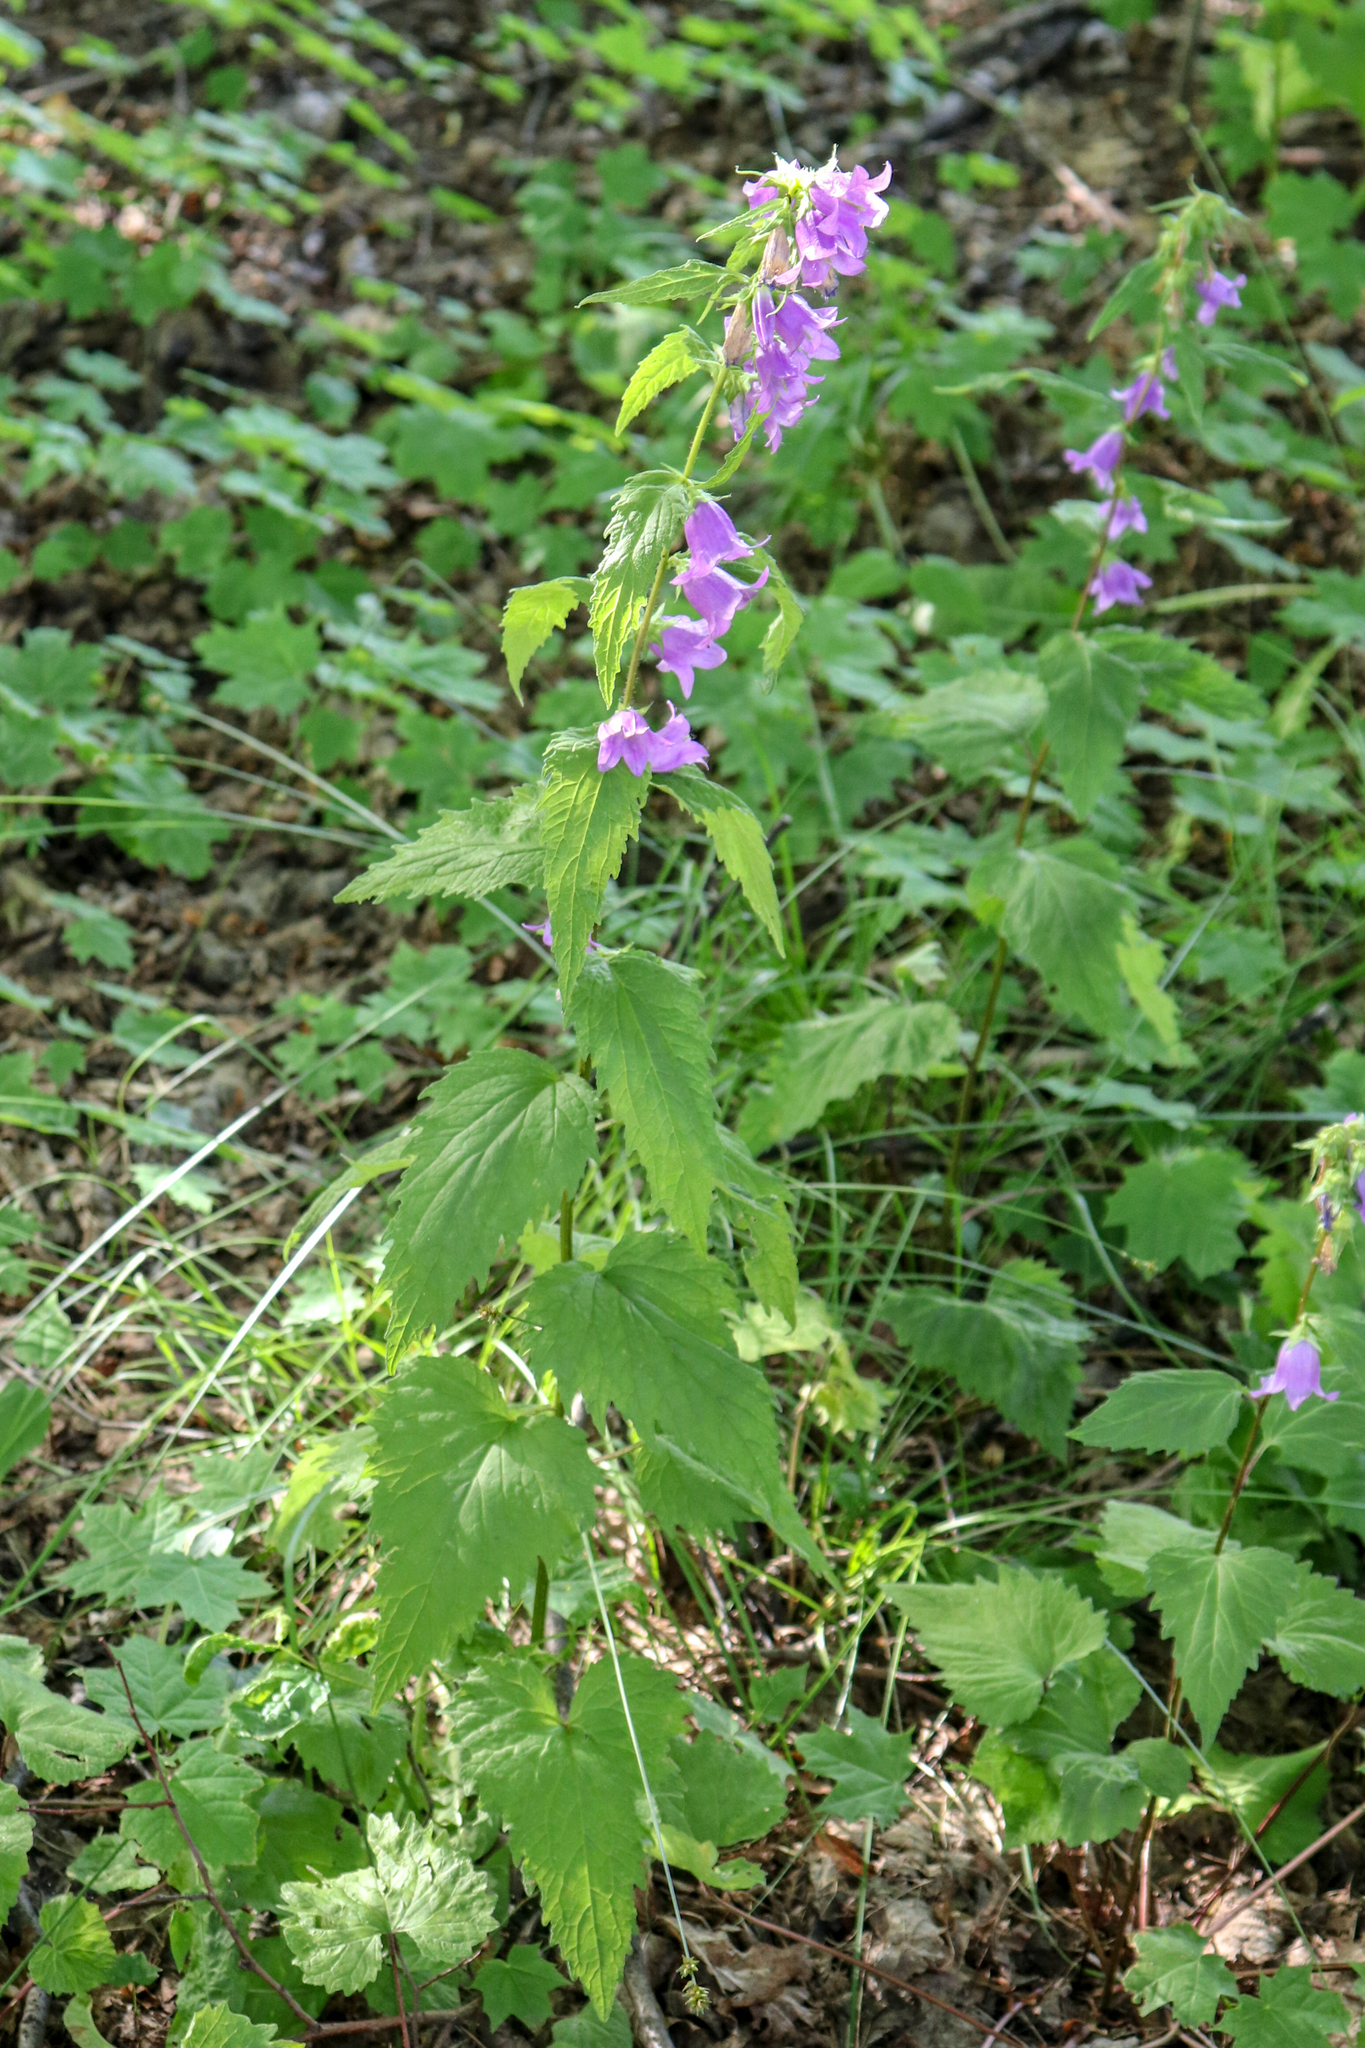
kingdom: Plantae
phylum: Tracheophyta
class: Magnoliopsida
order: Asterales
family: Campanulaceae
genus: Campanula
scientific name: Campanula trachelium
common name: Nettle-leaved bellflower
